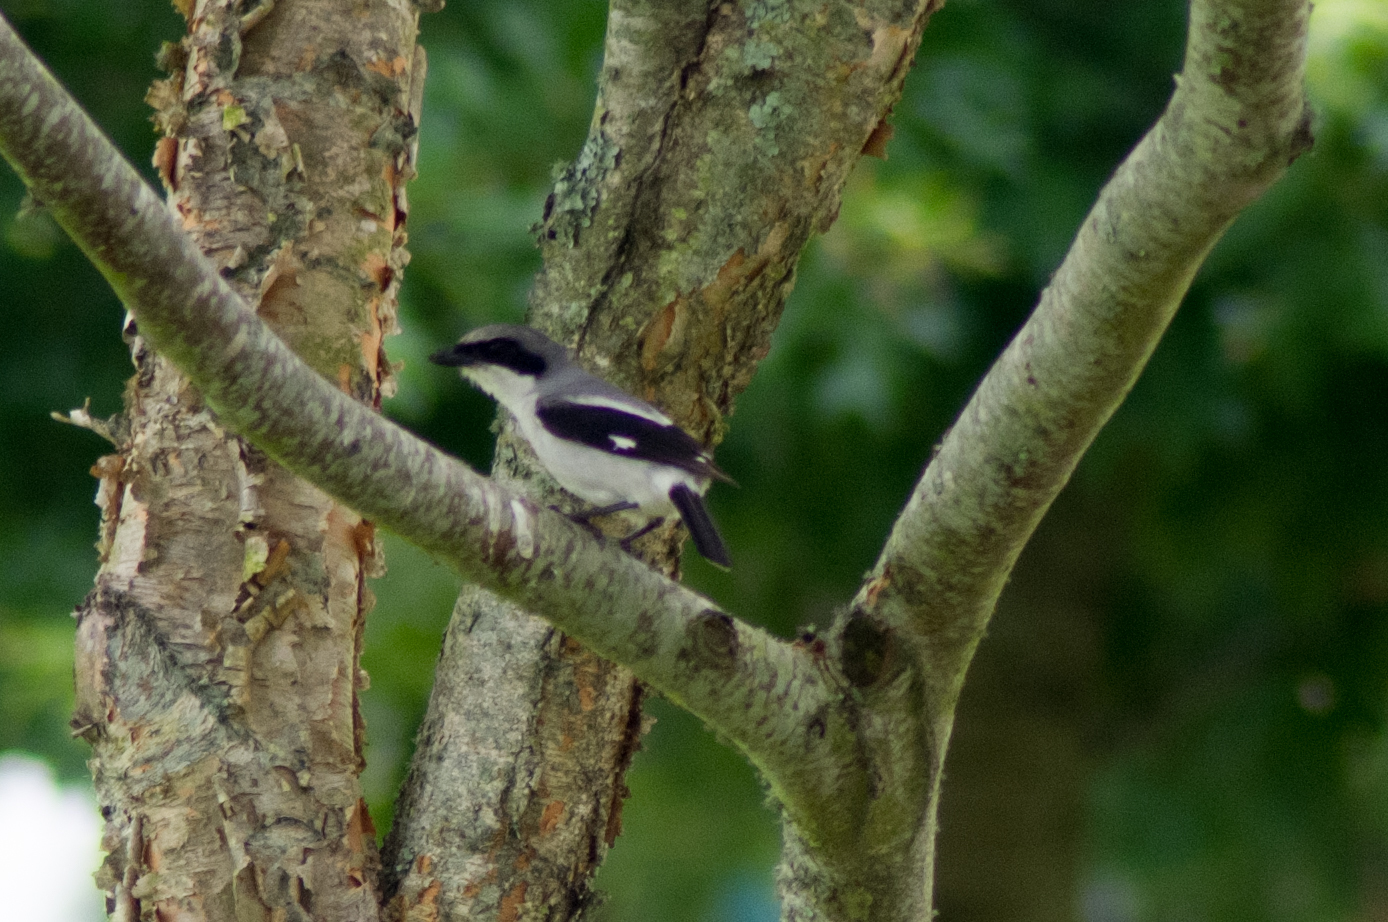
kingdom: Animalia
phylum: Chordata
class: Aves
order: Passeriformes
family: Laniidae
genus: Lanius
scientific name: Lanius ludovicianus
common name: Loggerhead shrike
